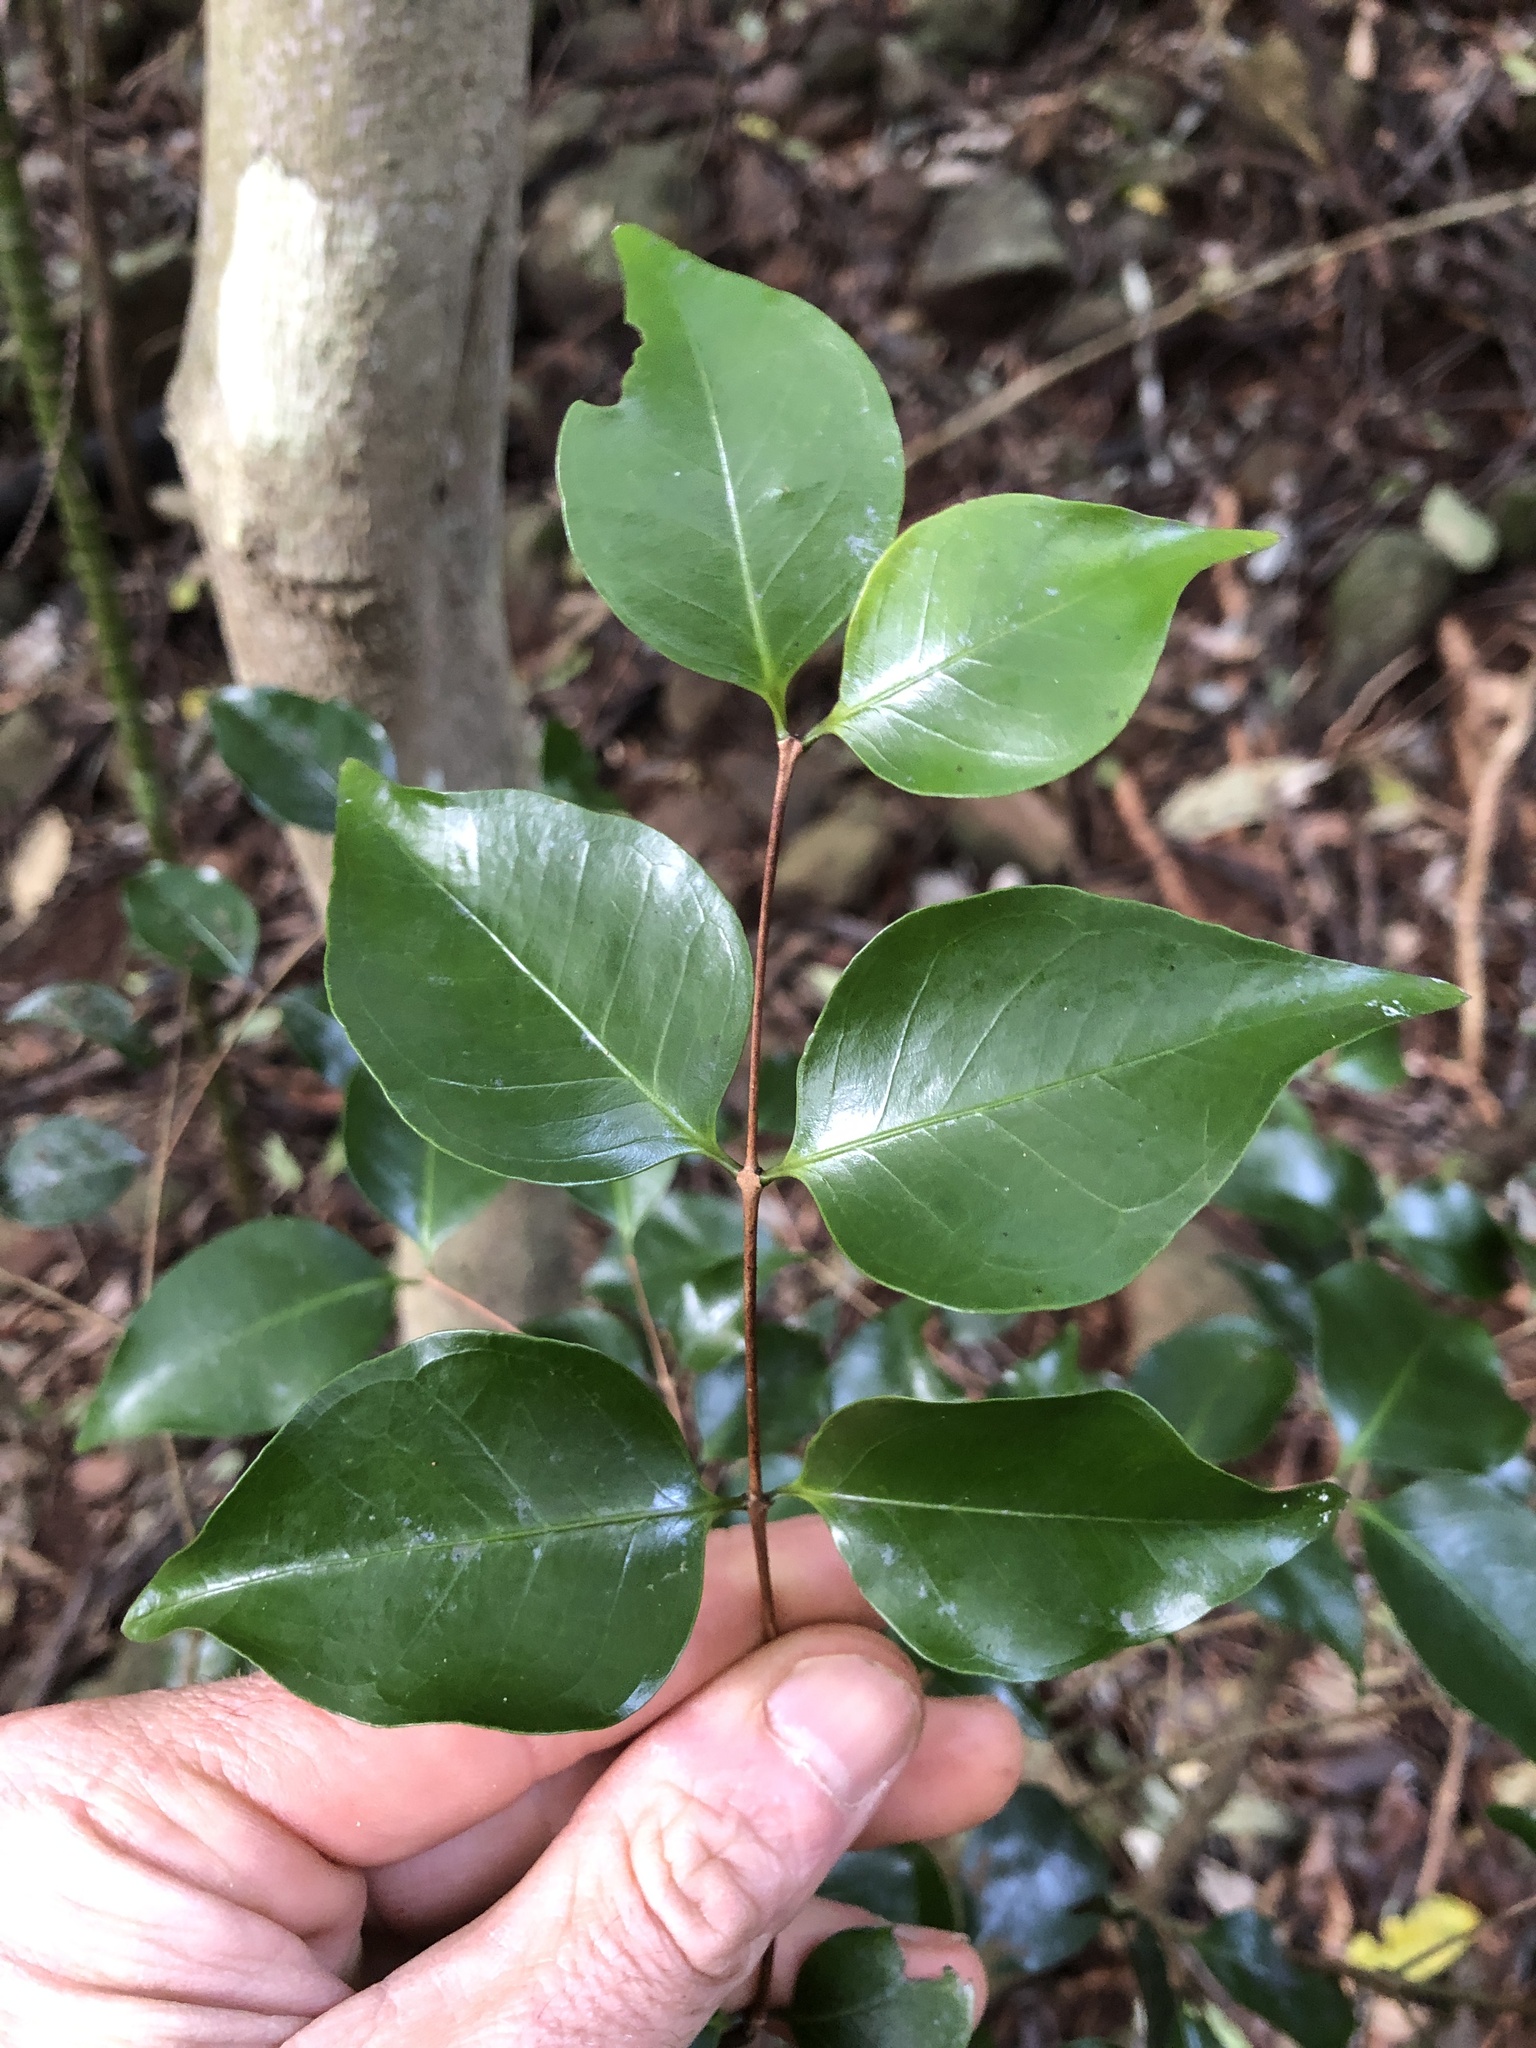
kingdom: Plantae
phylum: Tracheophyta
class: Magnoliopsida
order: Myrtales
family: Myrtaceae
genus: Gossia
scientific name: Gossia bidwillii
